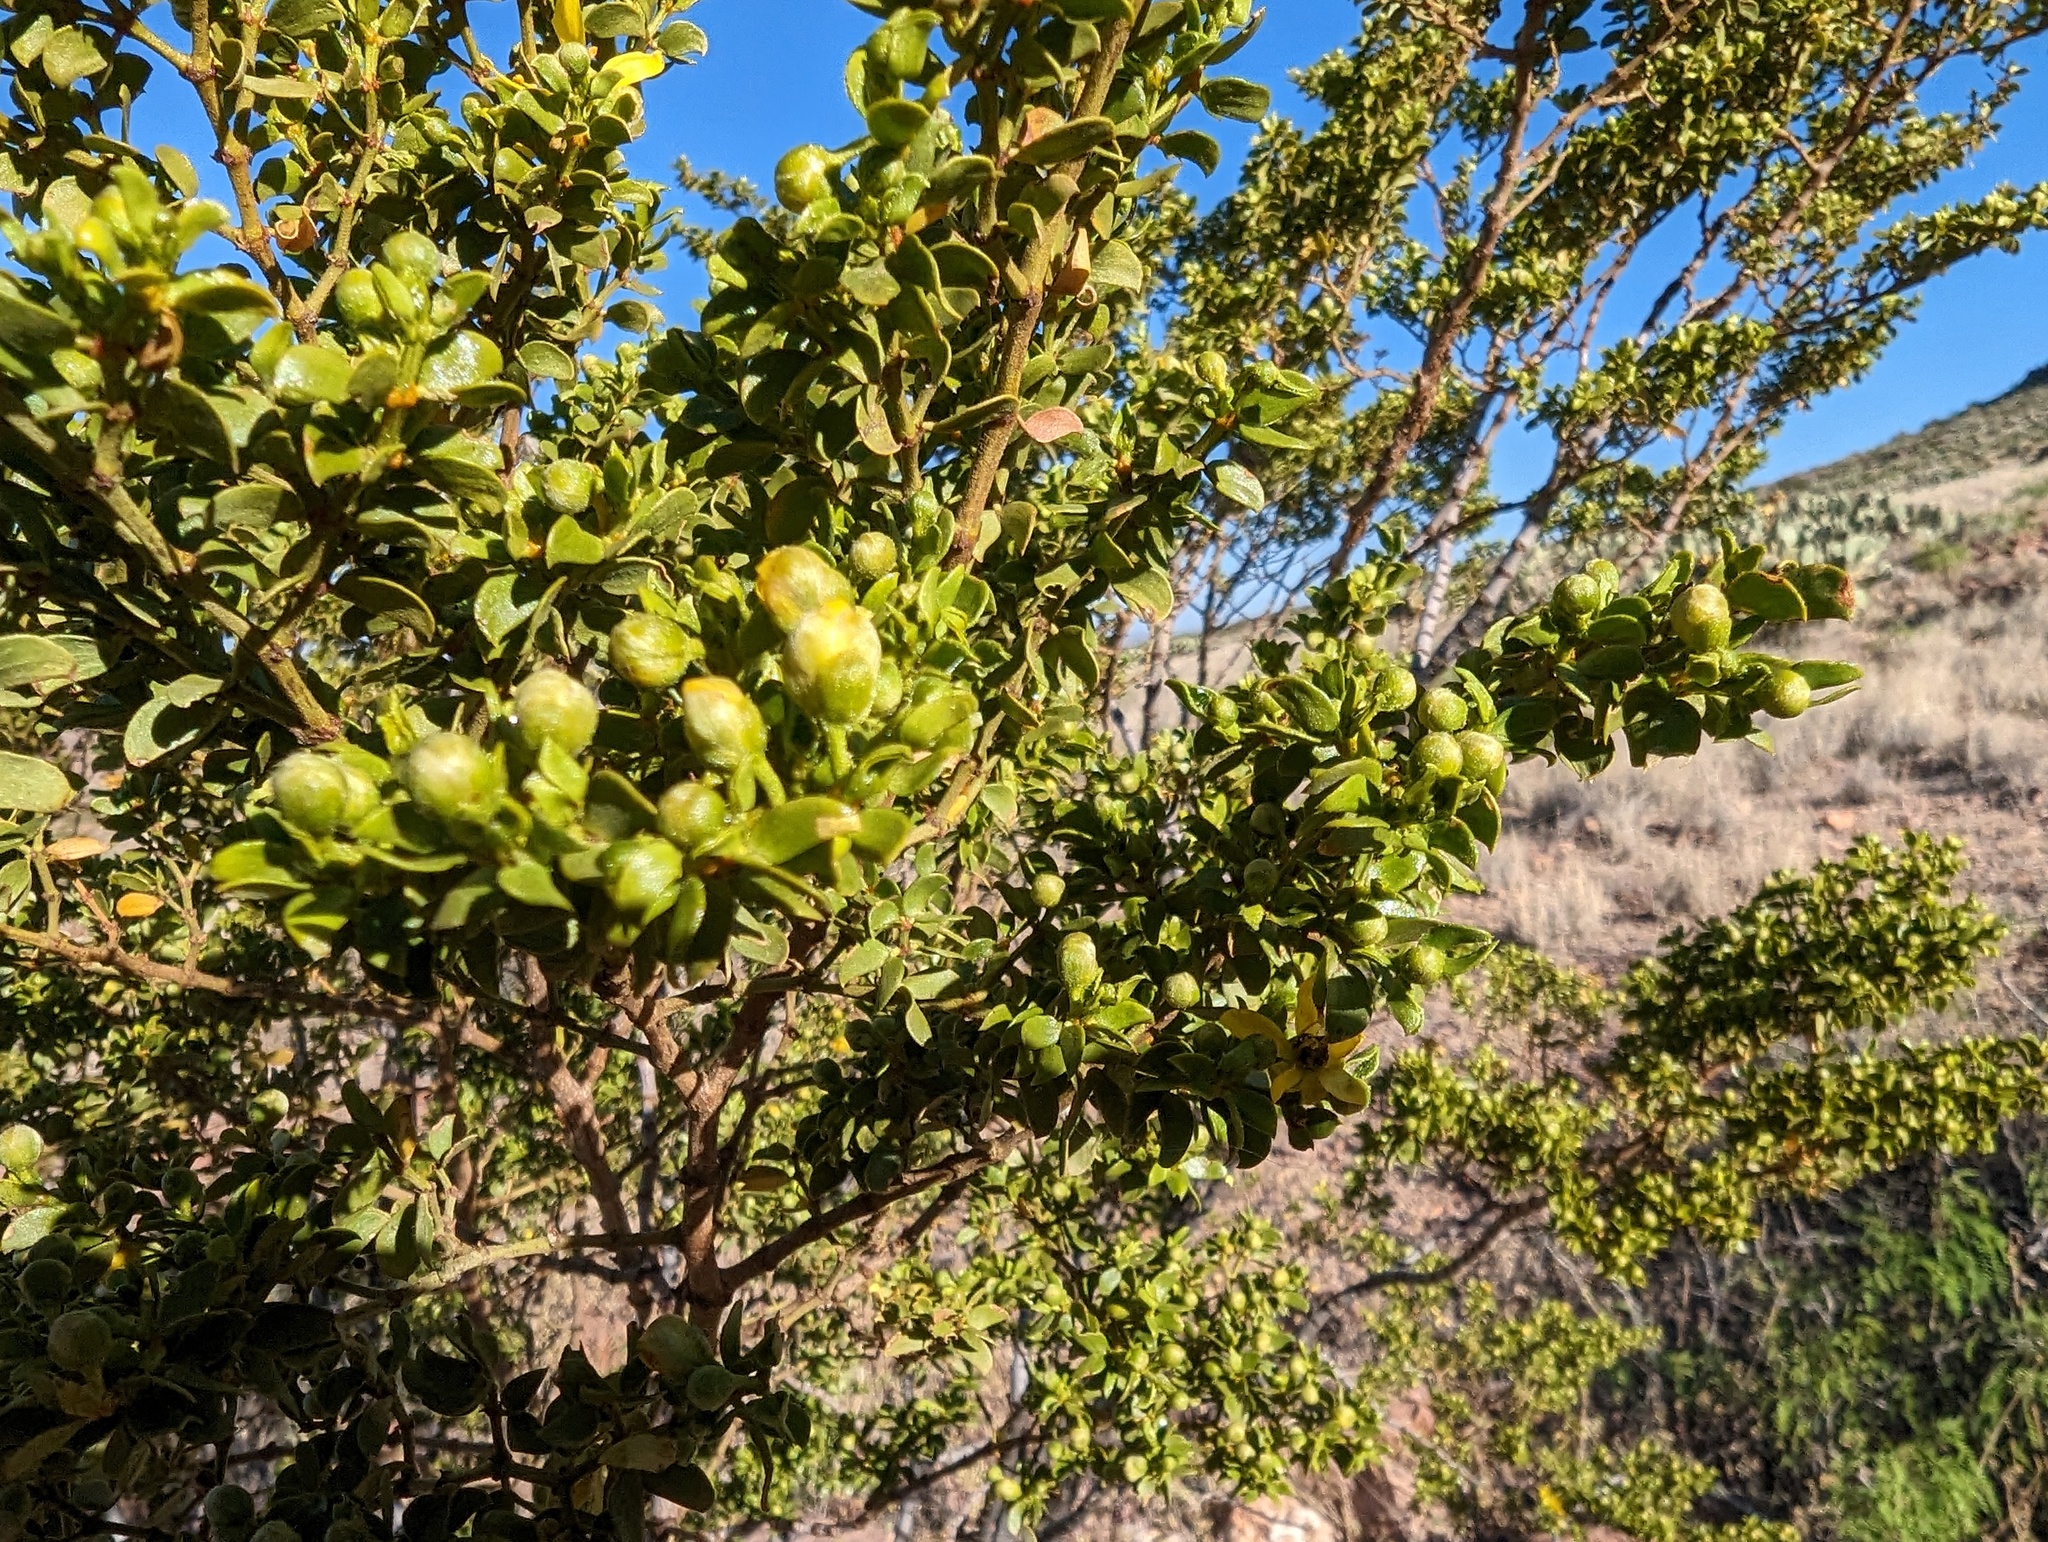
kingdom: Plantae
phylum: Tracheophyta
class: Magnoliopsida
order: Zygophyllales
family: Zygophyllaceae
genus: Larrea
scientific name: Larrea tridentata
